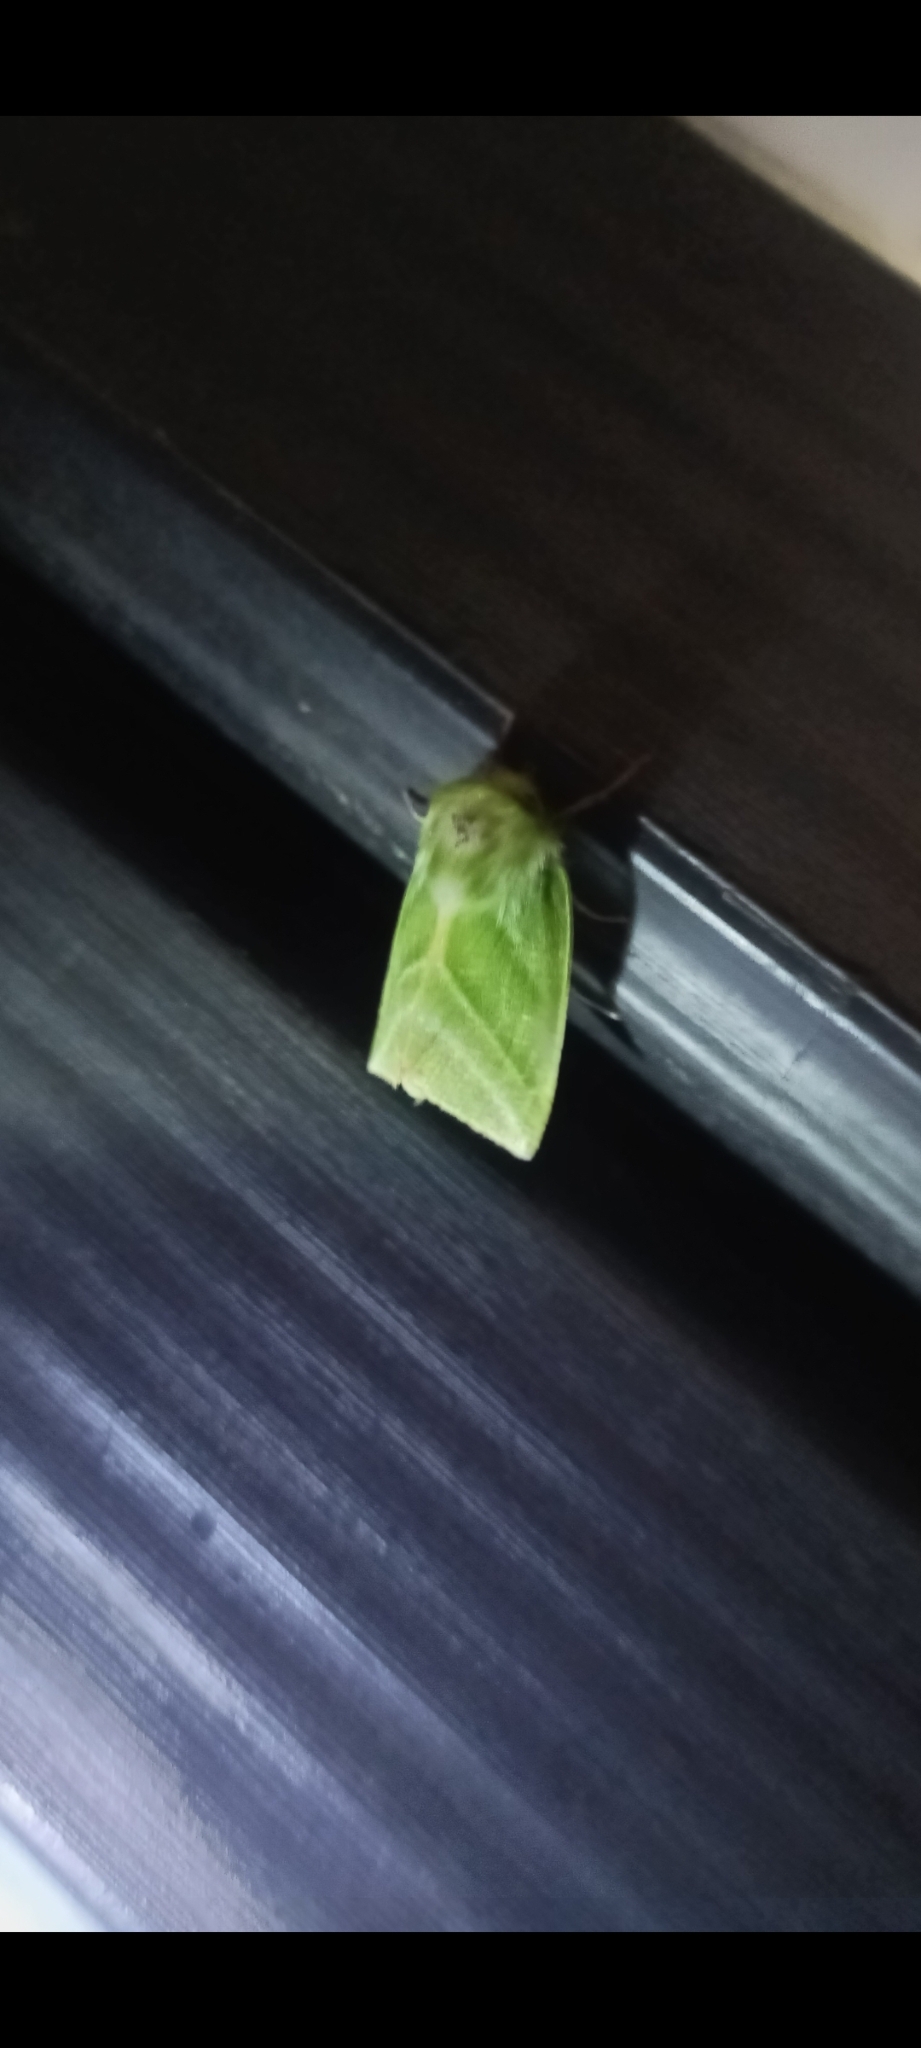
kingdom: Animalia
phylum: Arthropoda
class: Insecta
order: Lepidoptera
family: Nolidae
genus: Pseudoips
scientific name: Pseudoips prasinana
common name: Green silver-lines
